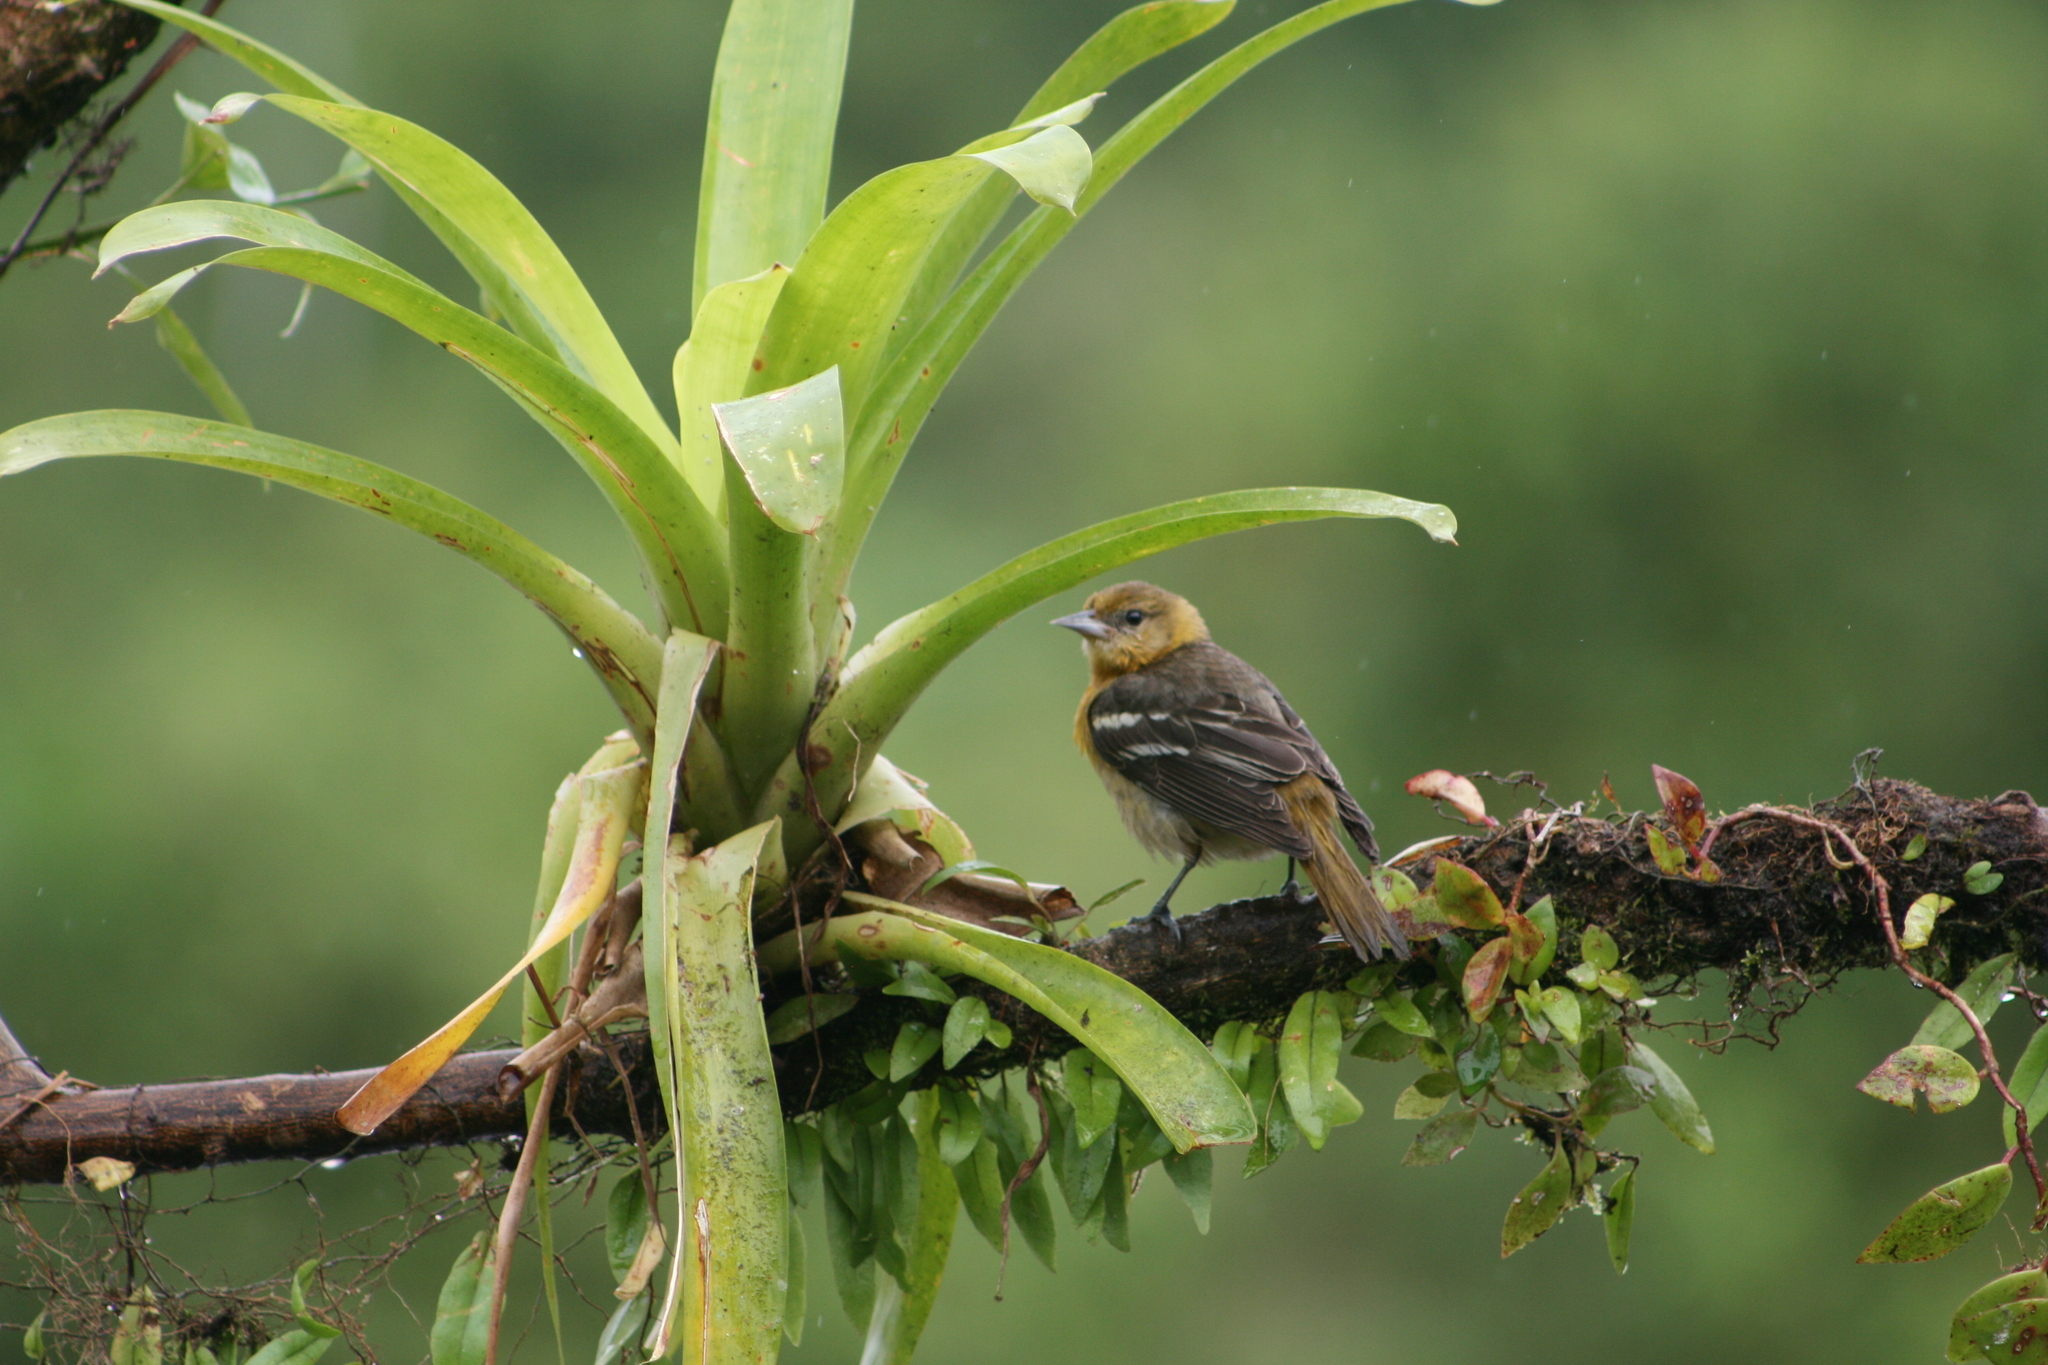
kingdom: Animalia
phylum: Chordata
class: Aves
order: Passeriformes
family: Icteridae
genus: Icterus
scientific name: Icterus galbula
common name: Baltimore oriole
